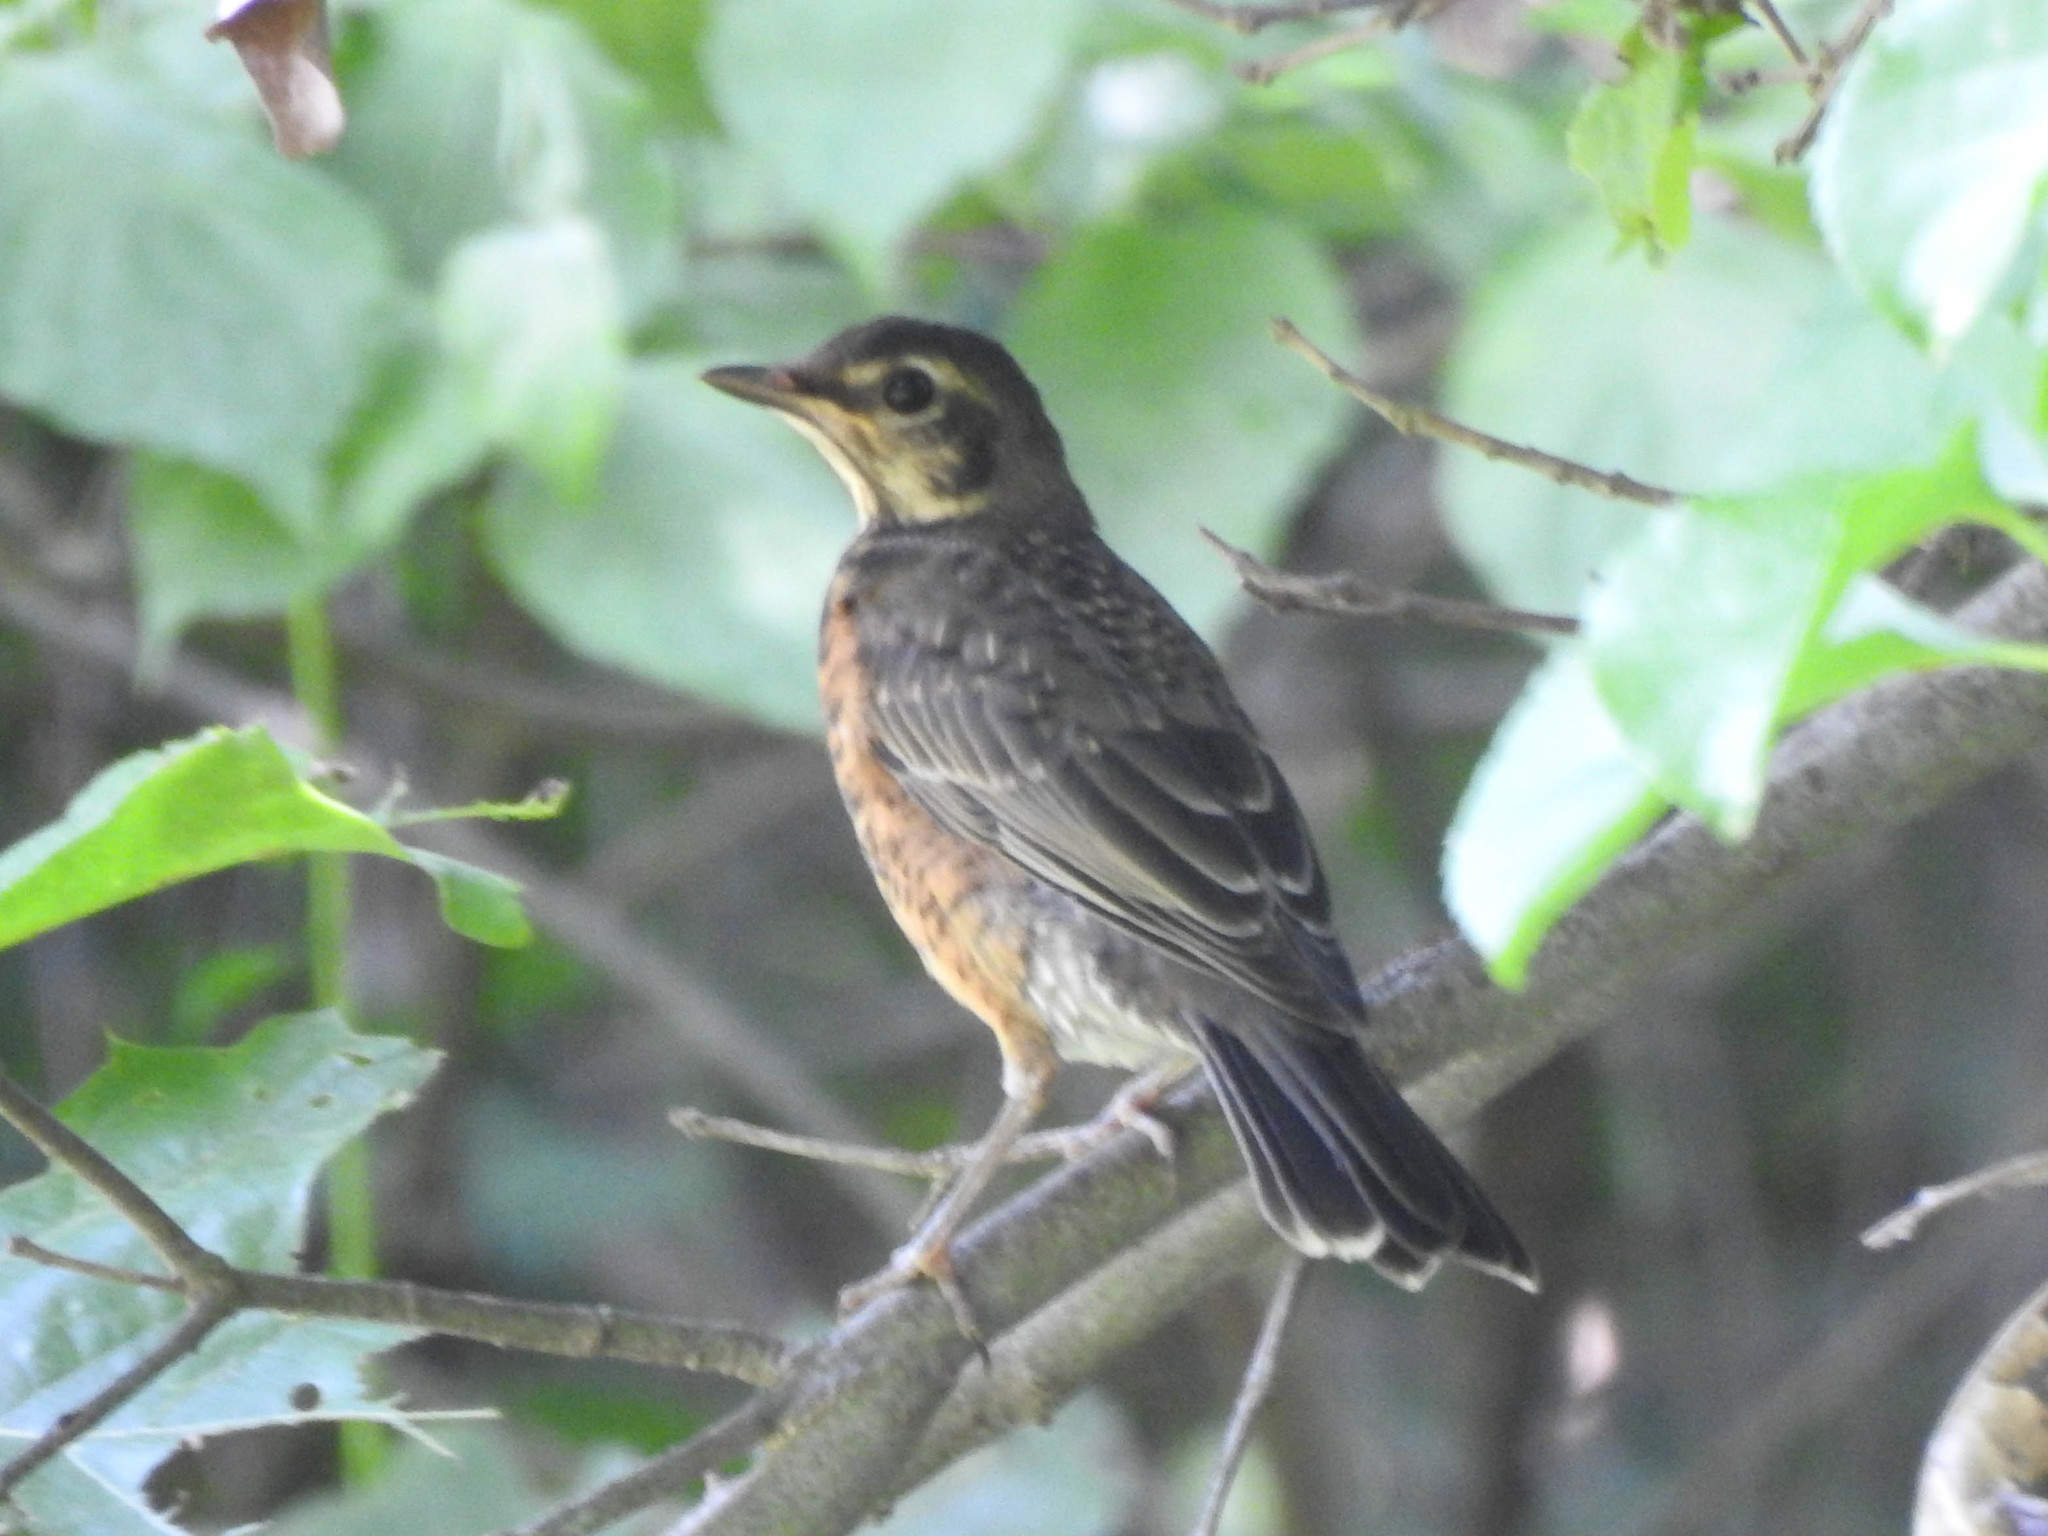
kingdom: Animalia
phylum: Chordata
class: Aves
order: Passeriformes
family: Turdidae
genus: Turdus
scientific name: Turdus migratorius
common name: American robin
